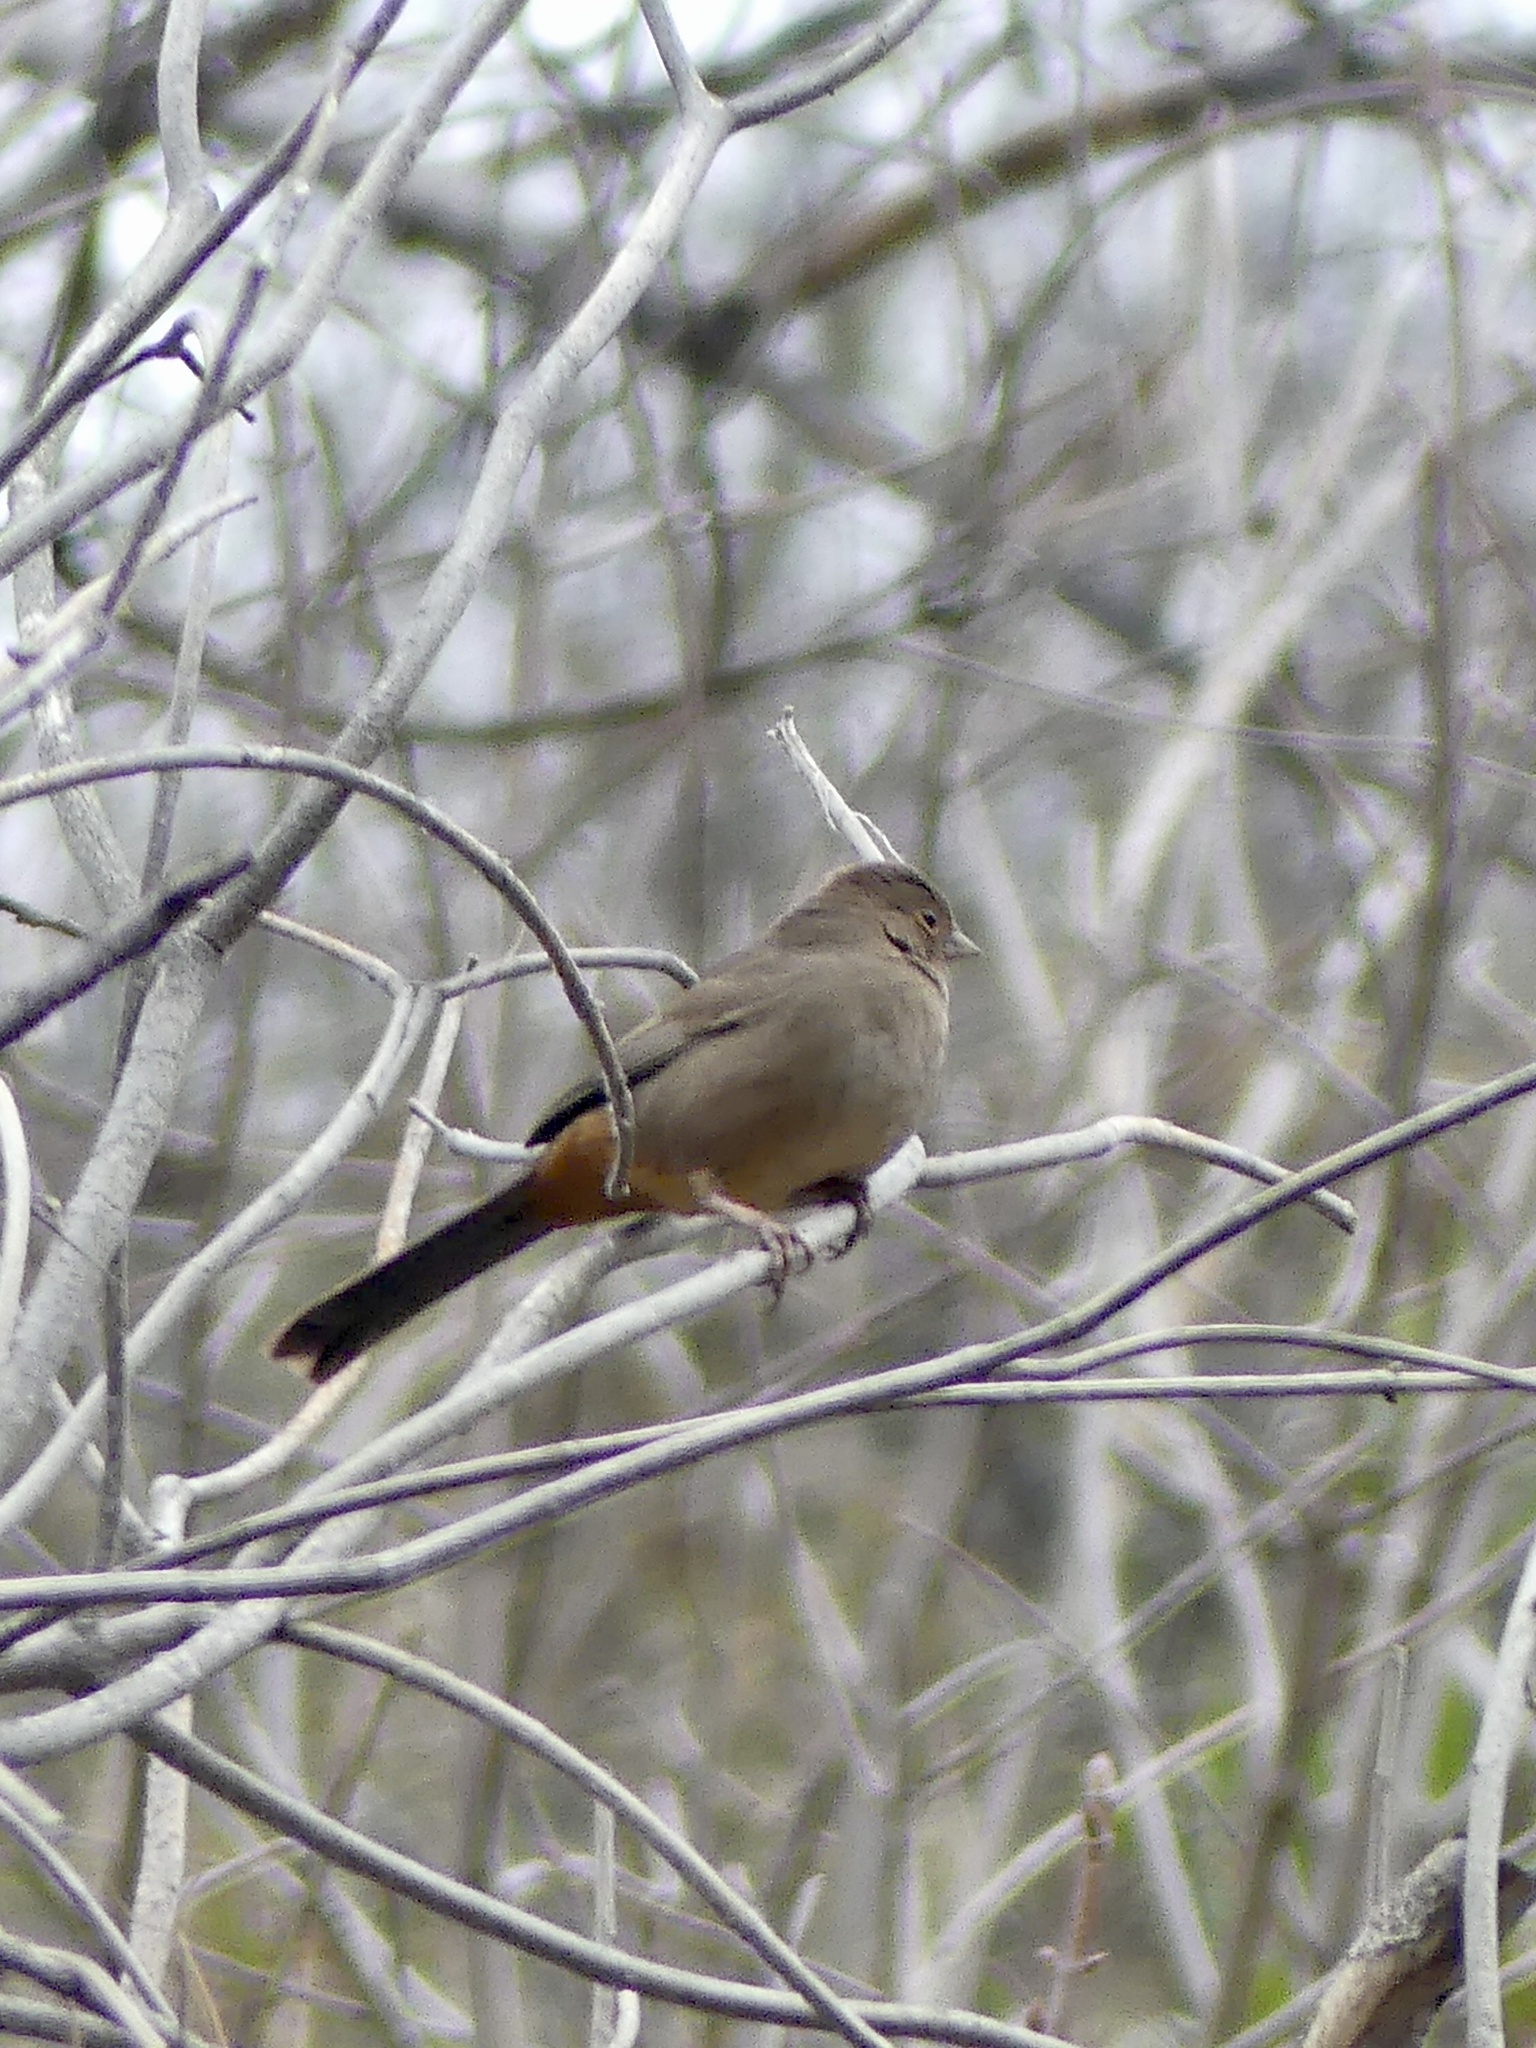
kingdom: Animalia
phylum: Chordata
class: Aves
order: Passeriformes
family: Passerellidae
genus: Melozone
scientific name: Melozone crissalis
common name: California towhee
